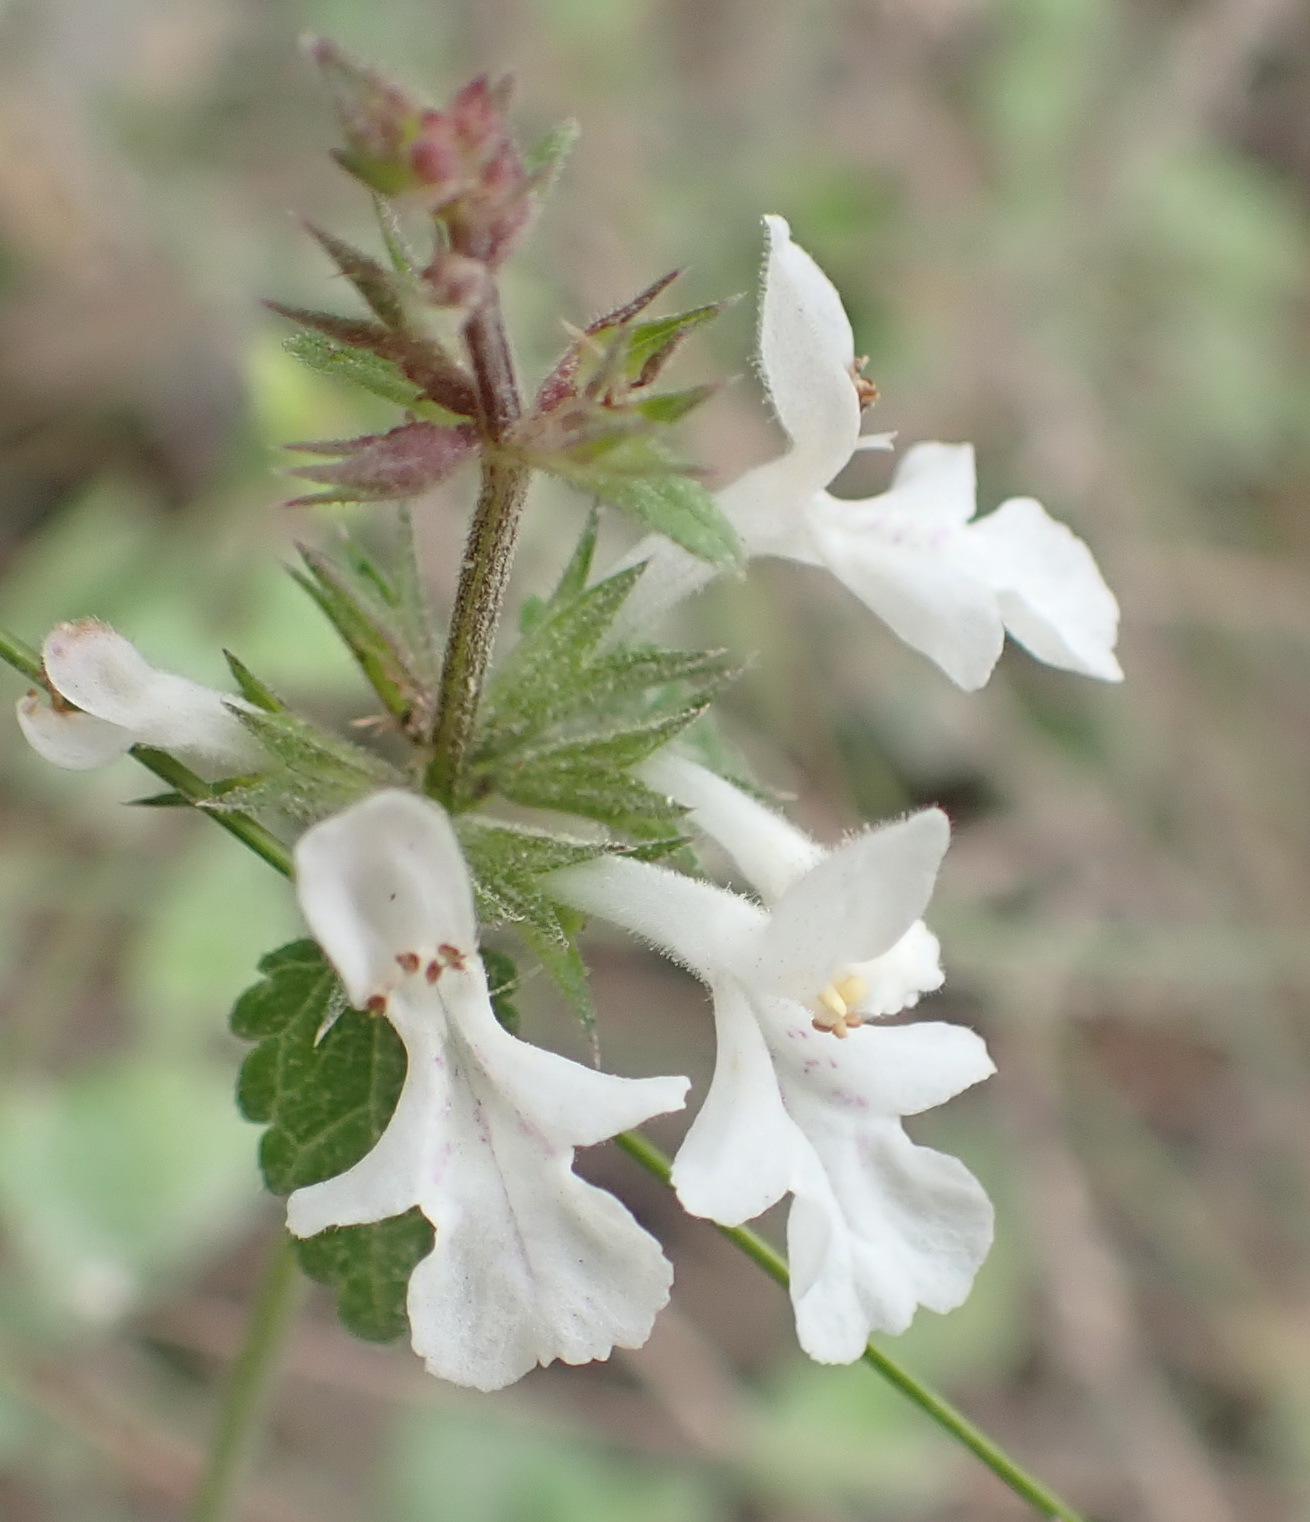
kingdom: Plantae
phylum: Tracheophyta
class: Magnoliopsida
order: Lamiales
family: Lamiaceae
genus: Stachys
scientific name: Stachys aethiopica
